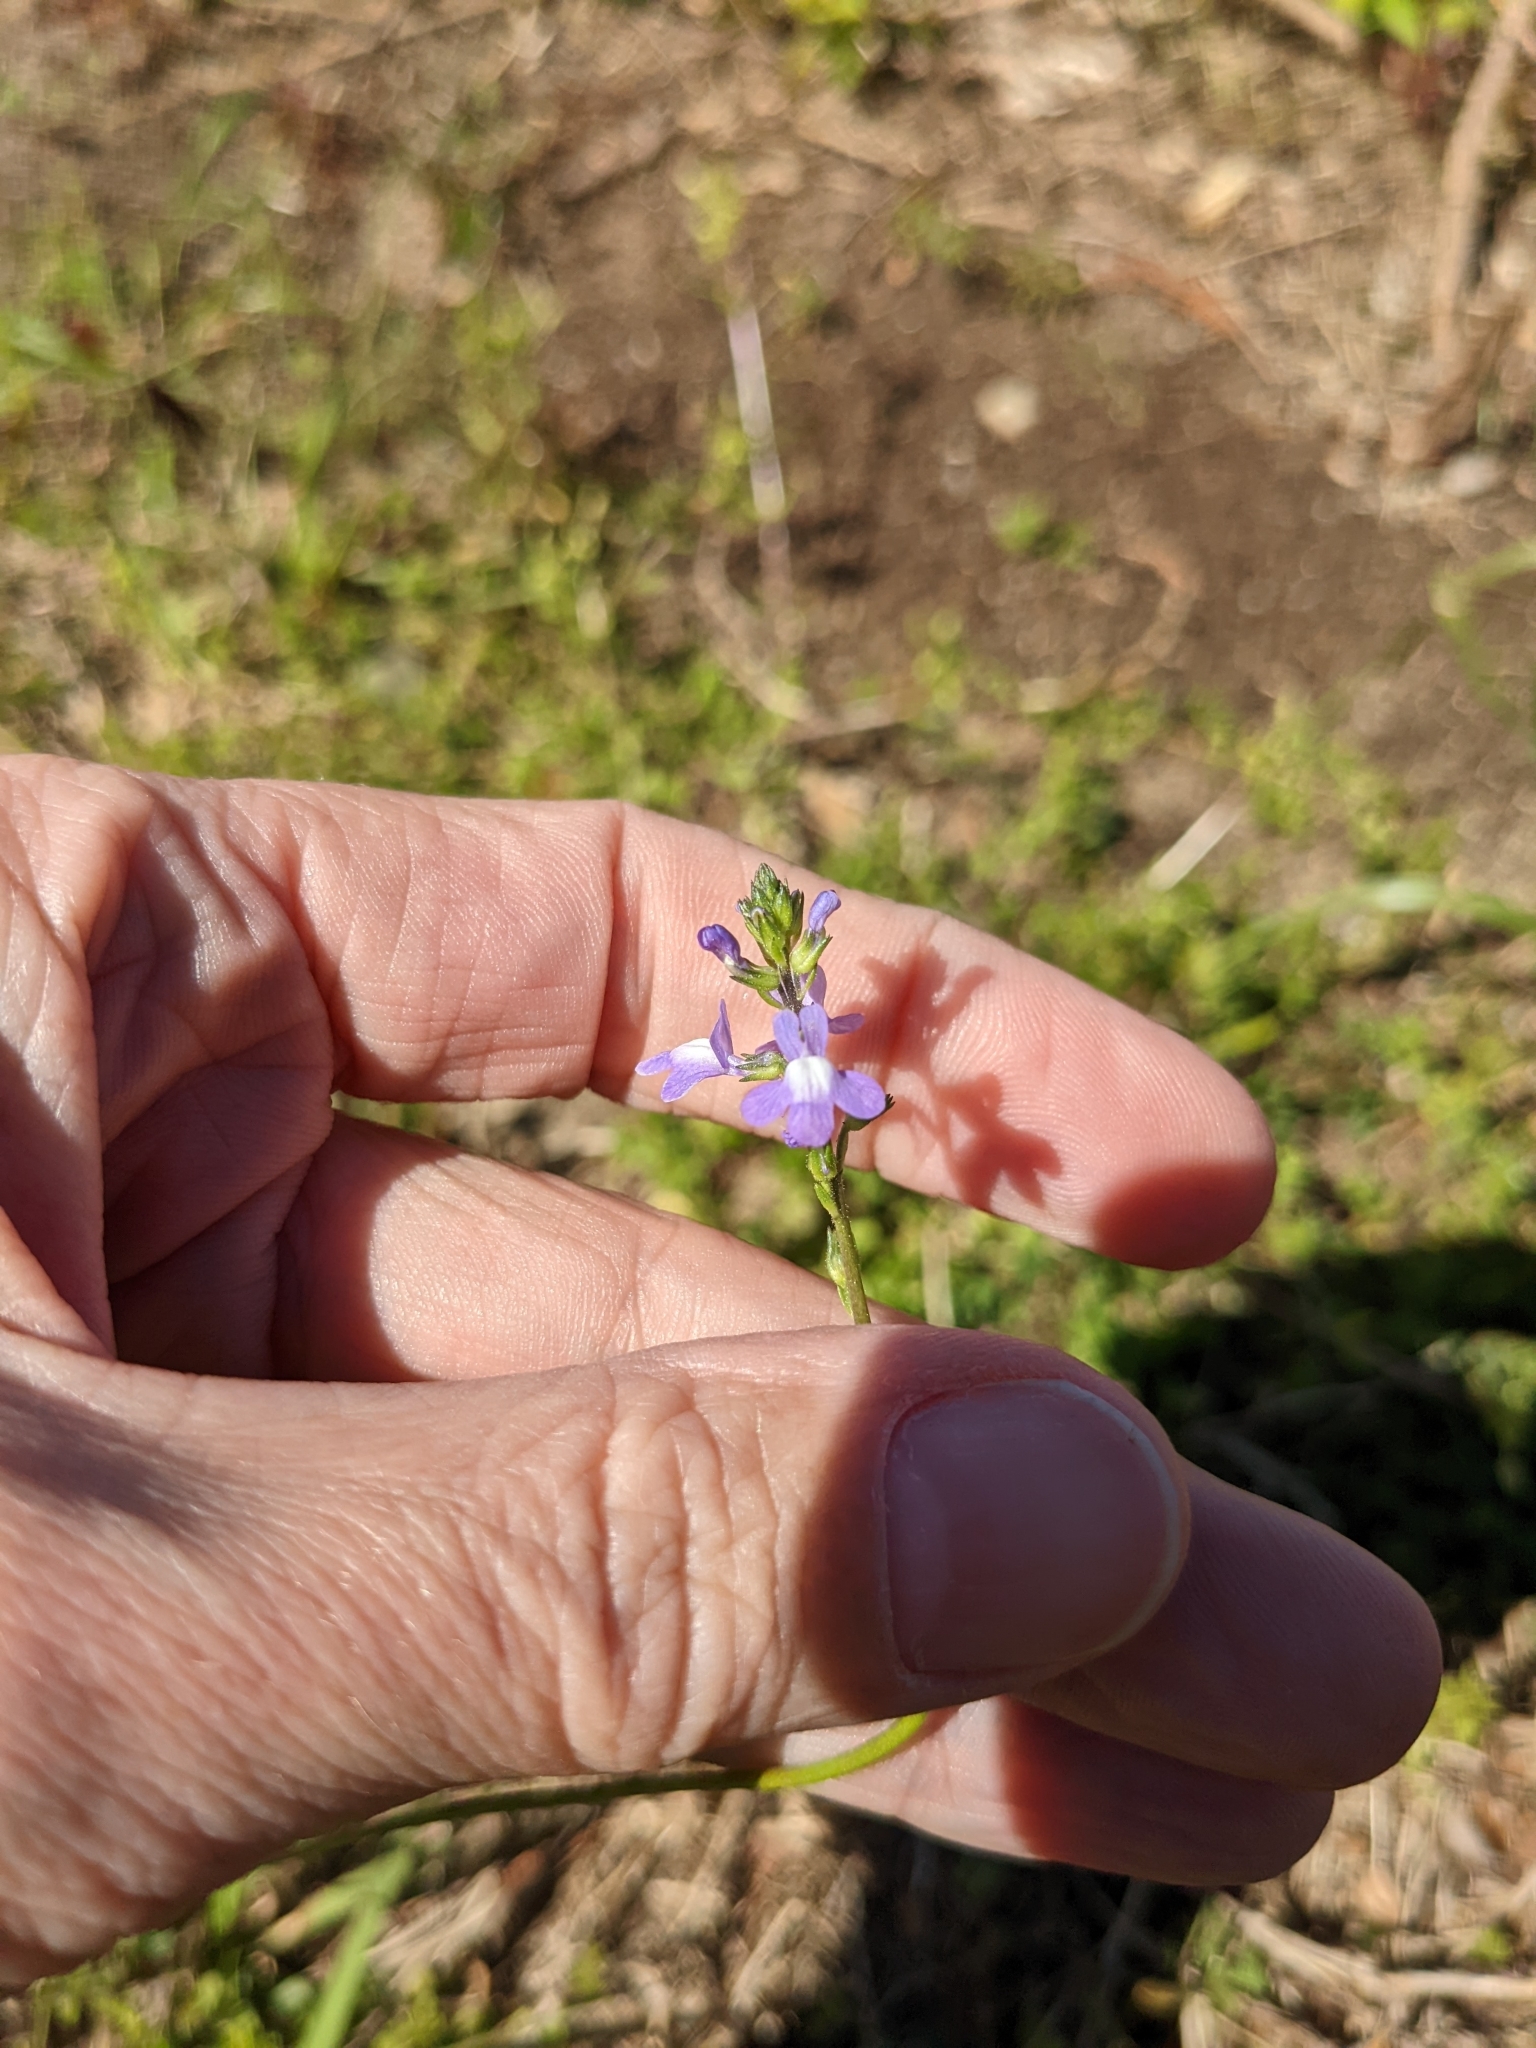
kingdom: Plantae
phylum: Tracheophyta
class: Magnoliopsida
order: Lamiales
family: Plantaginaceae
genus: Nuttallanthus
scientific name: Nuttallanthus canadensis
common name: Blue toadflax
